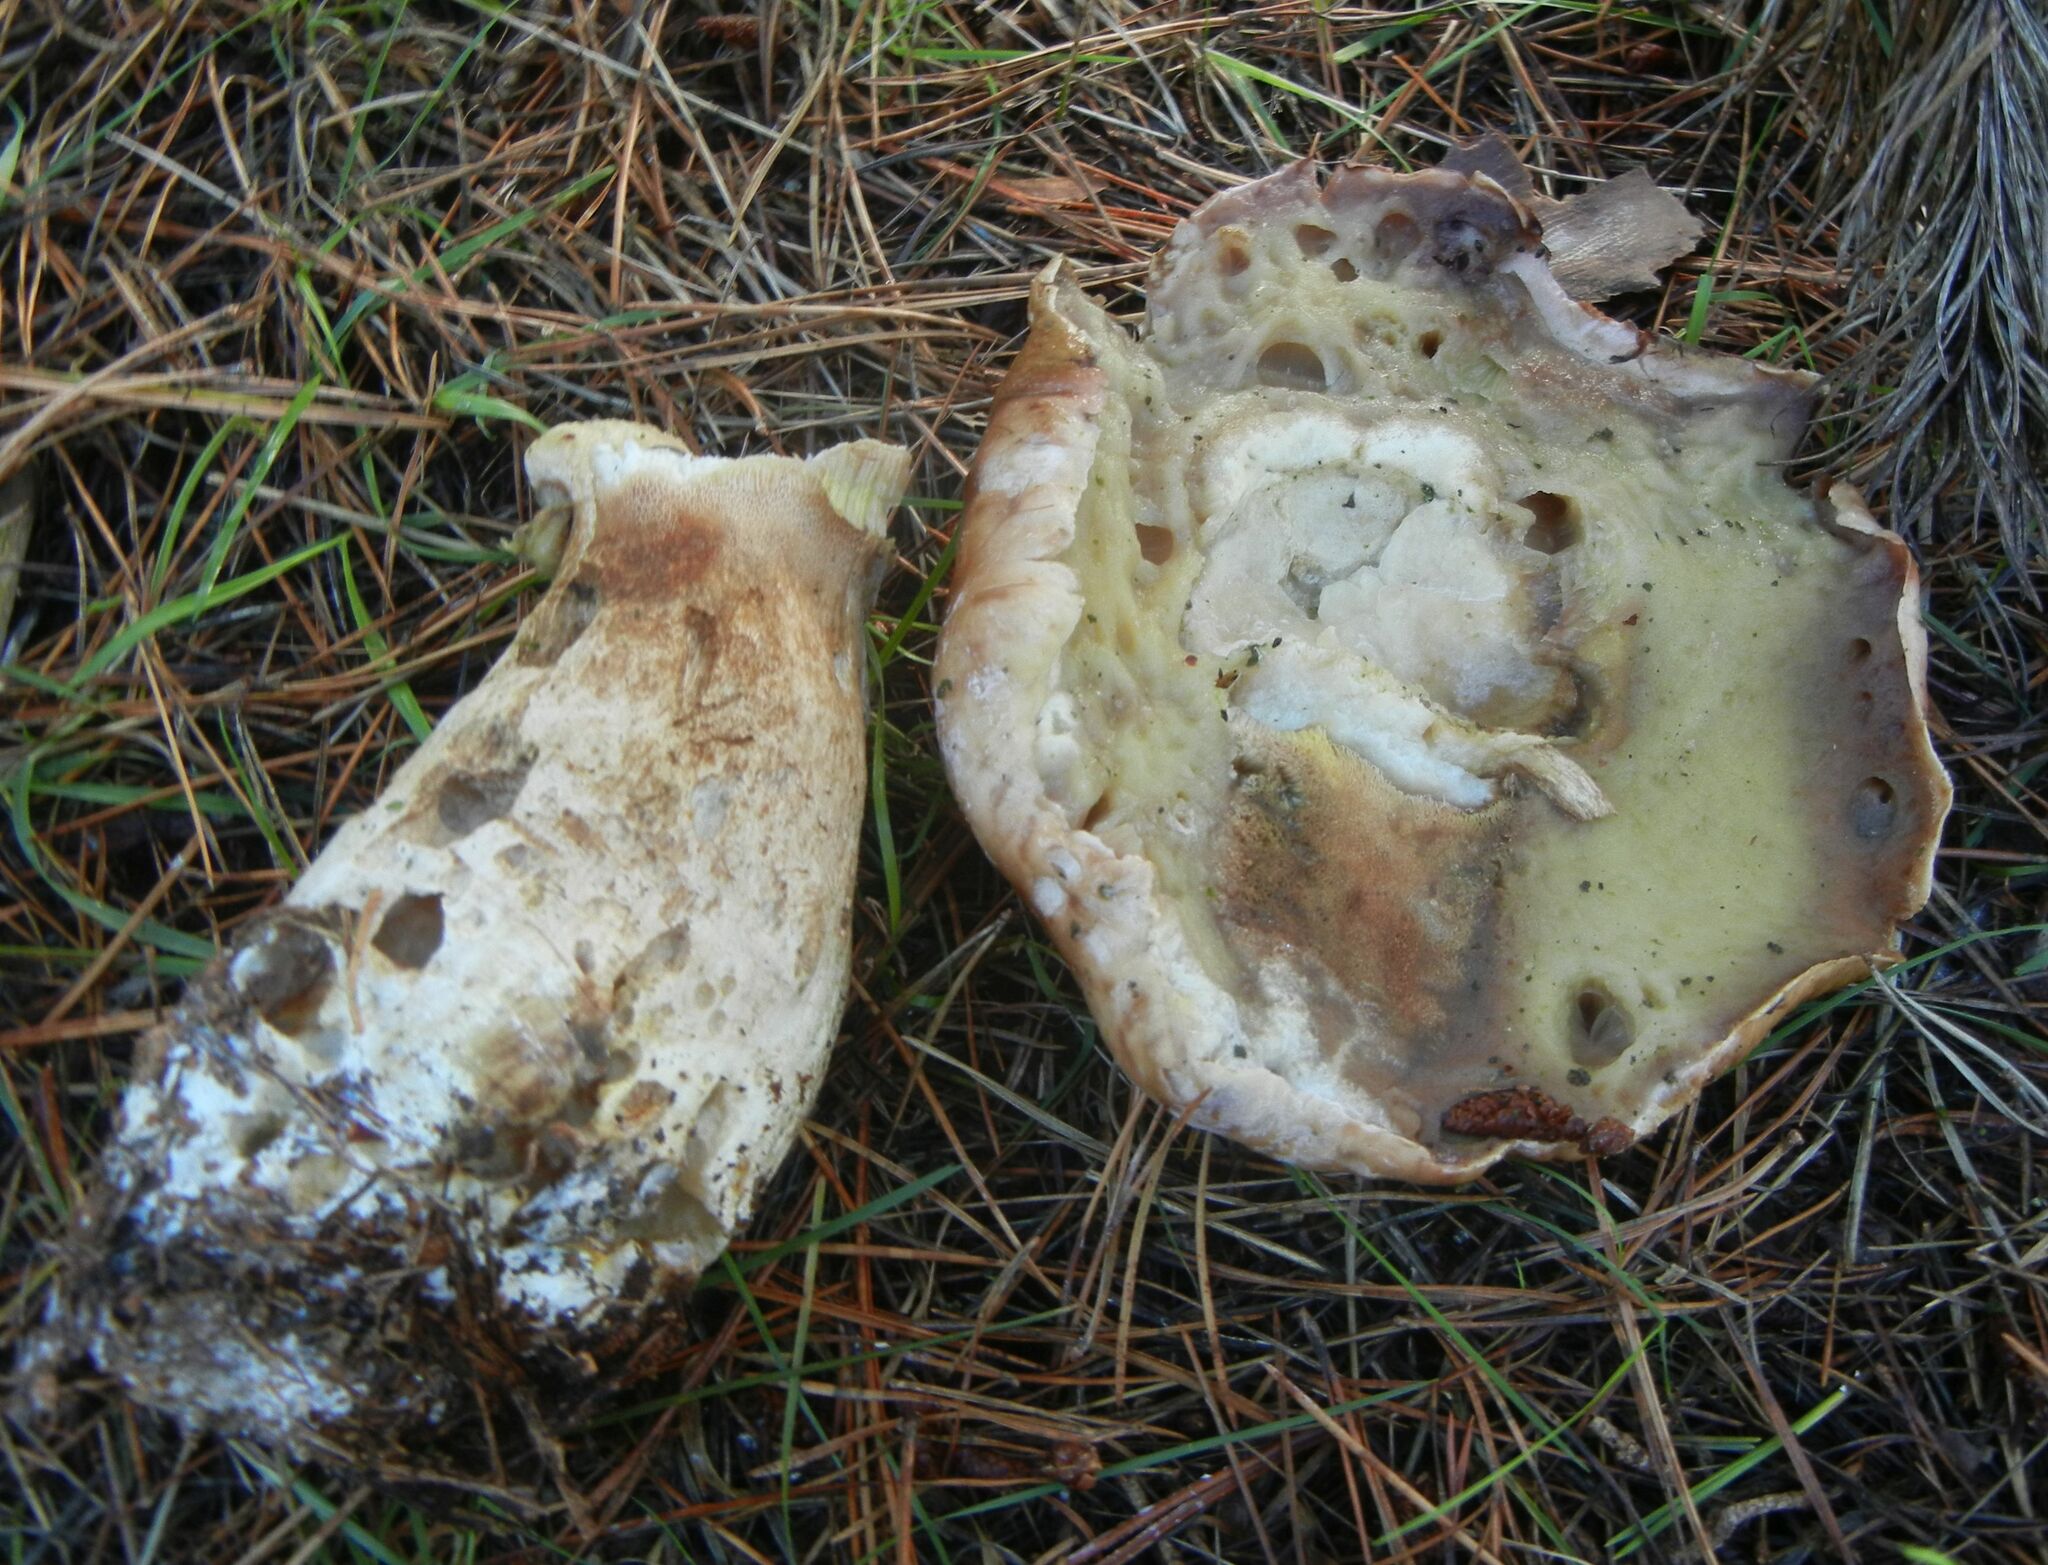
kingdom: Fungi
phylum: Basidiomycota
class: Agaricomycetes
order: Boletales
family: Boletaceae
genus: Boletus
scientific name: Boletus edulis
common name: Cep
